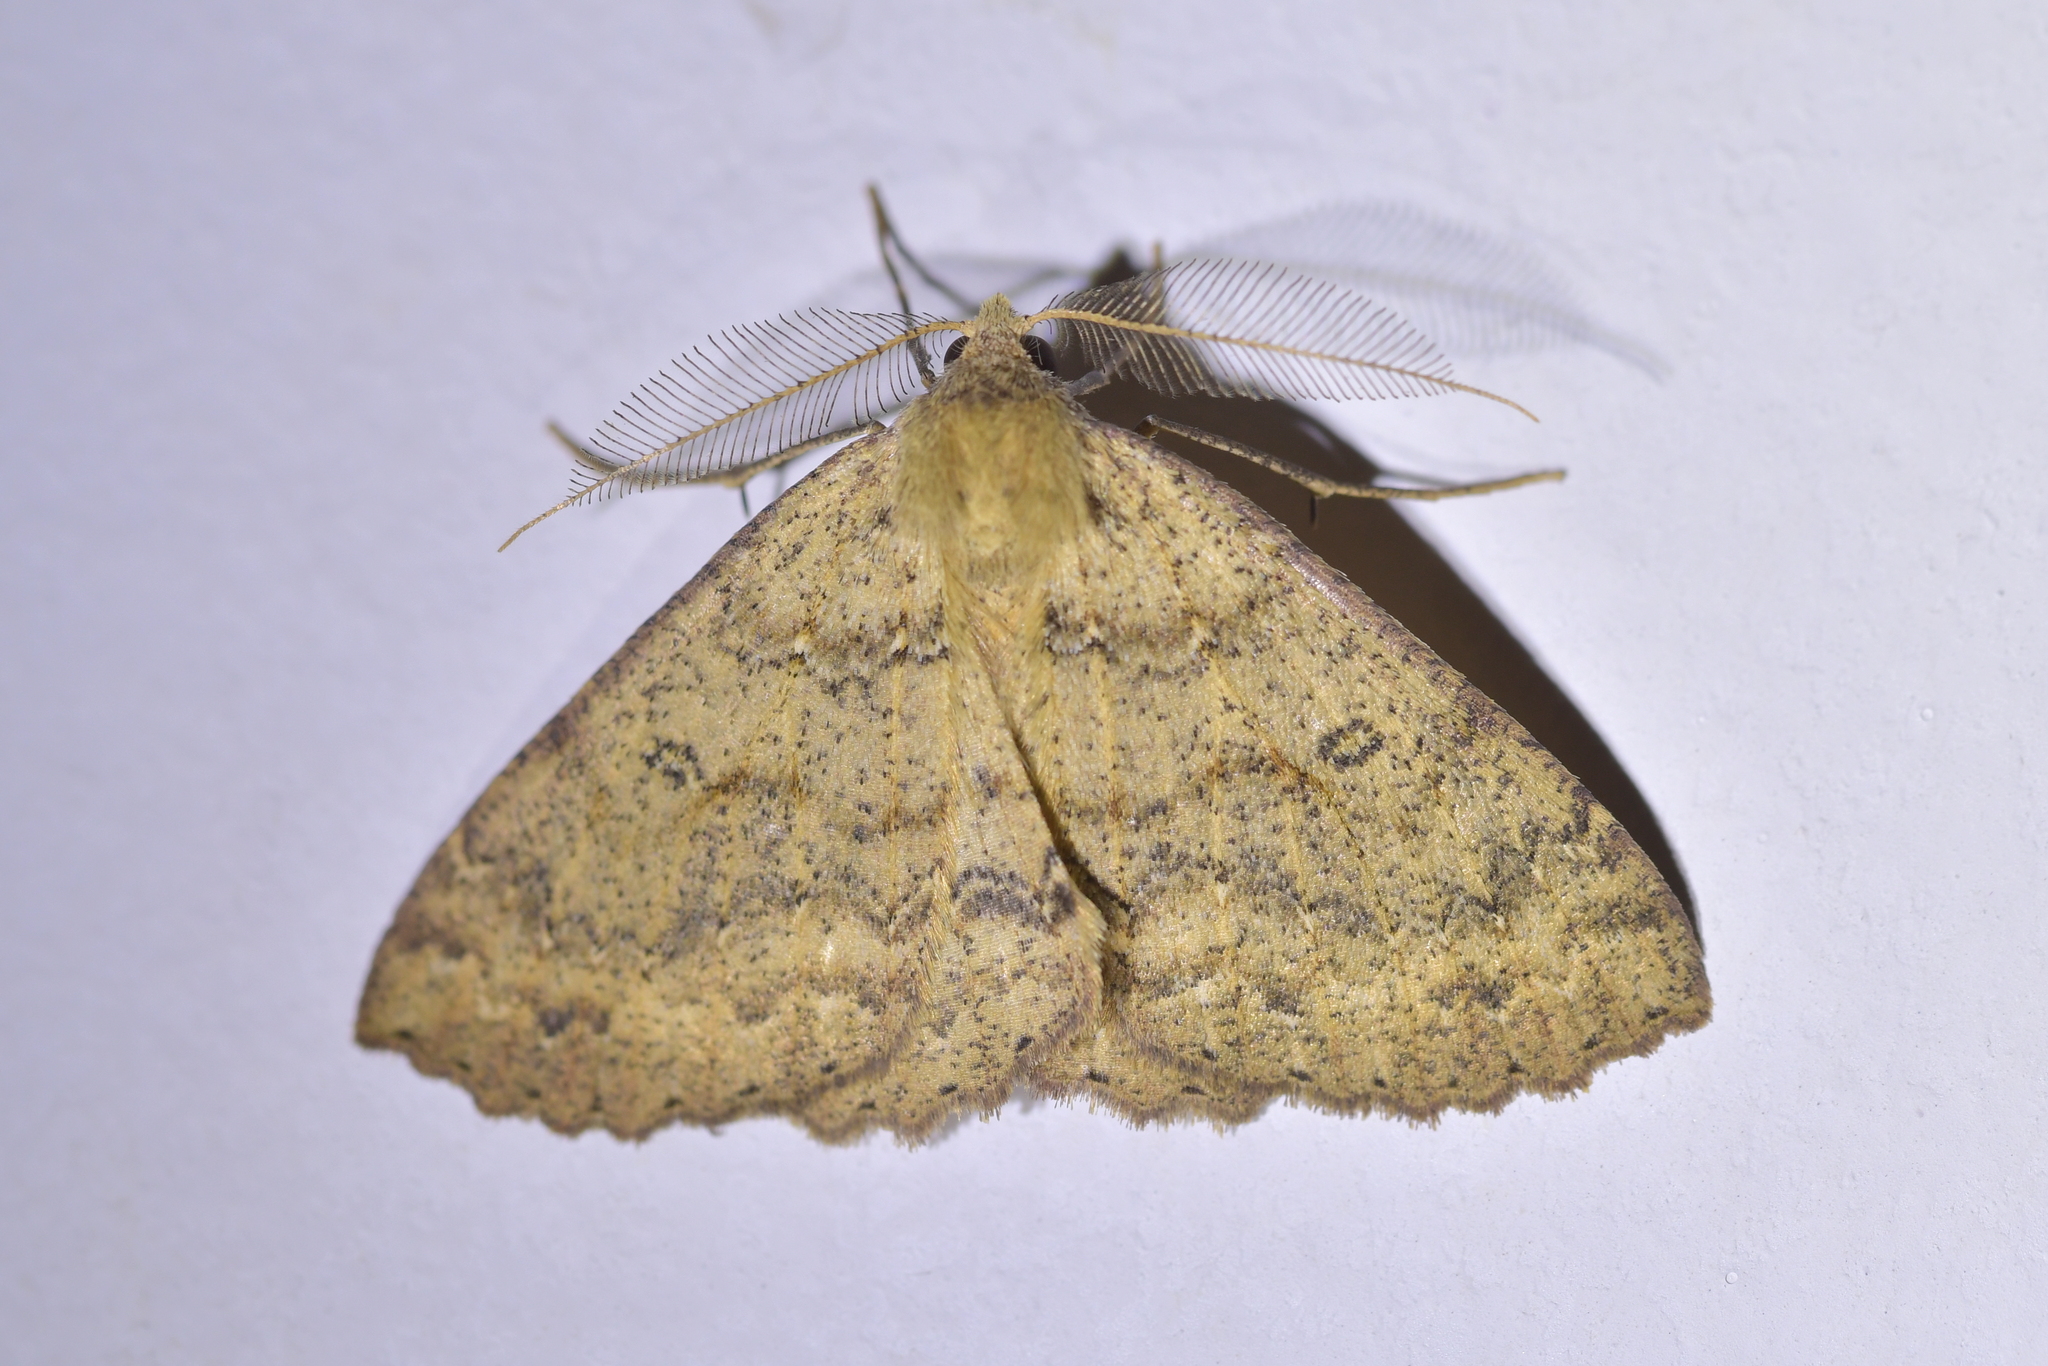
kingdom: Animalia
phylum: Arthropoda
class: Insecta
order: Lepidoptera
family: Geometridae
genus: Cleora
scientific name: Cleora scriptaria
